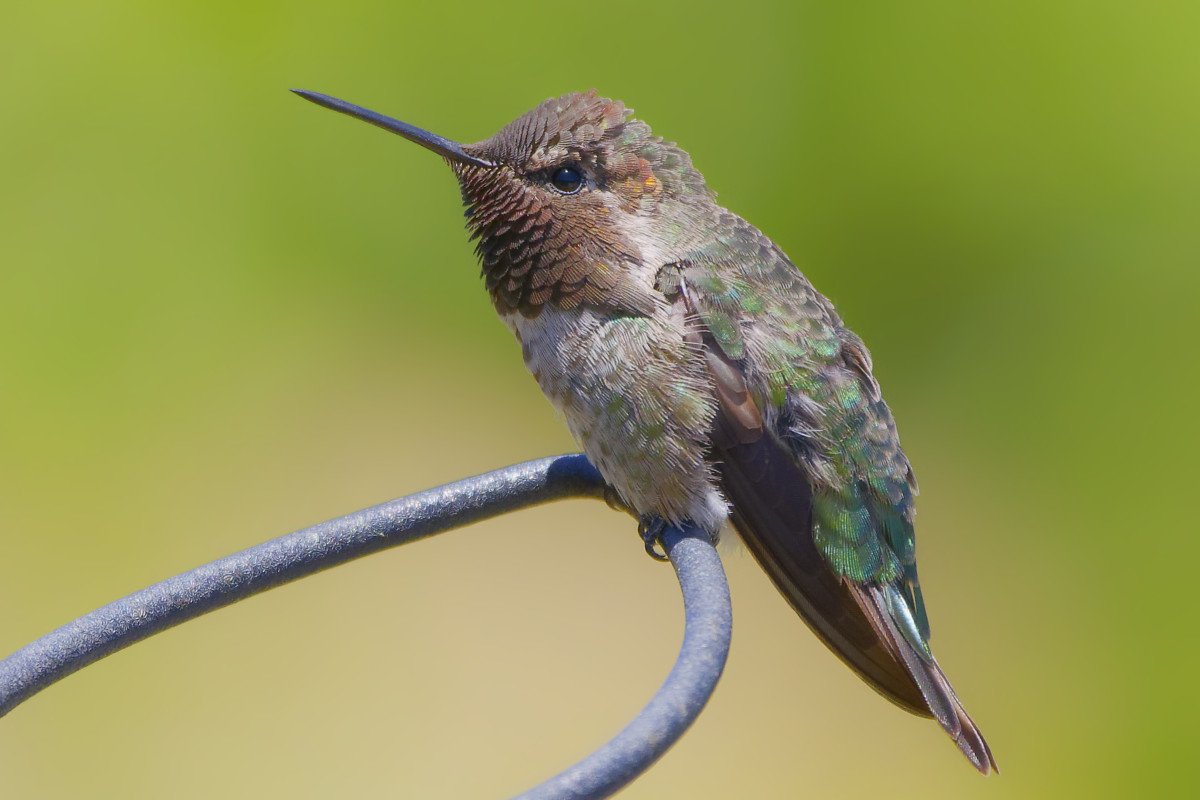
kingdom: Animalia
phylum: Chordata
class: Aves
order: Apodiformes
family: Trochilidae
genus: Calypte
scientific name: Calypte anna
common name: Anna's hummingbird
